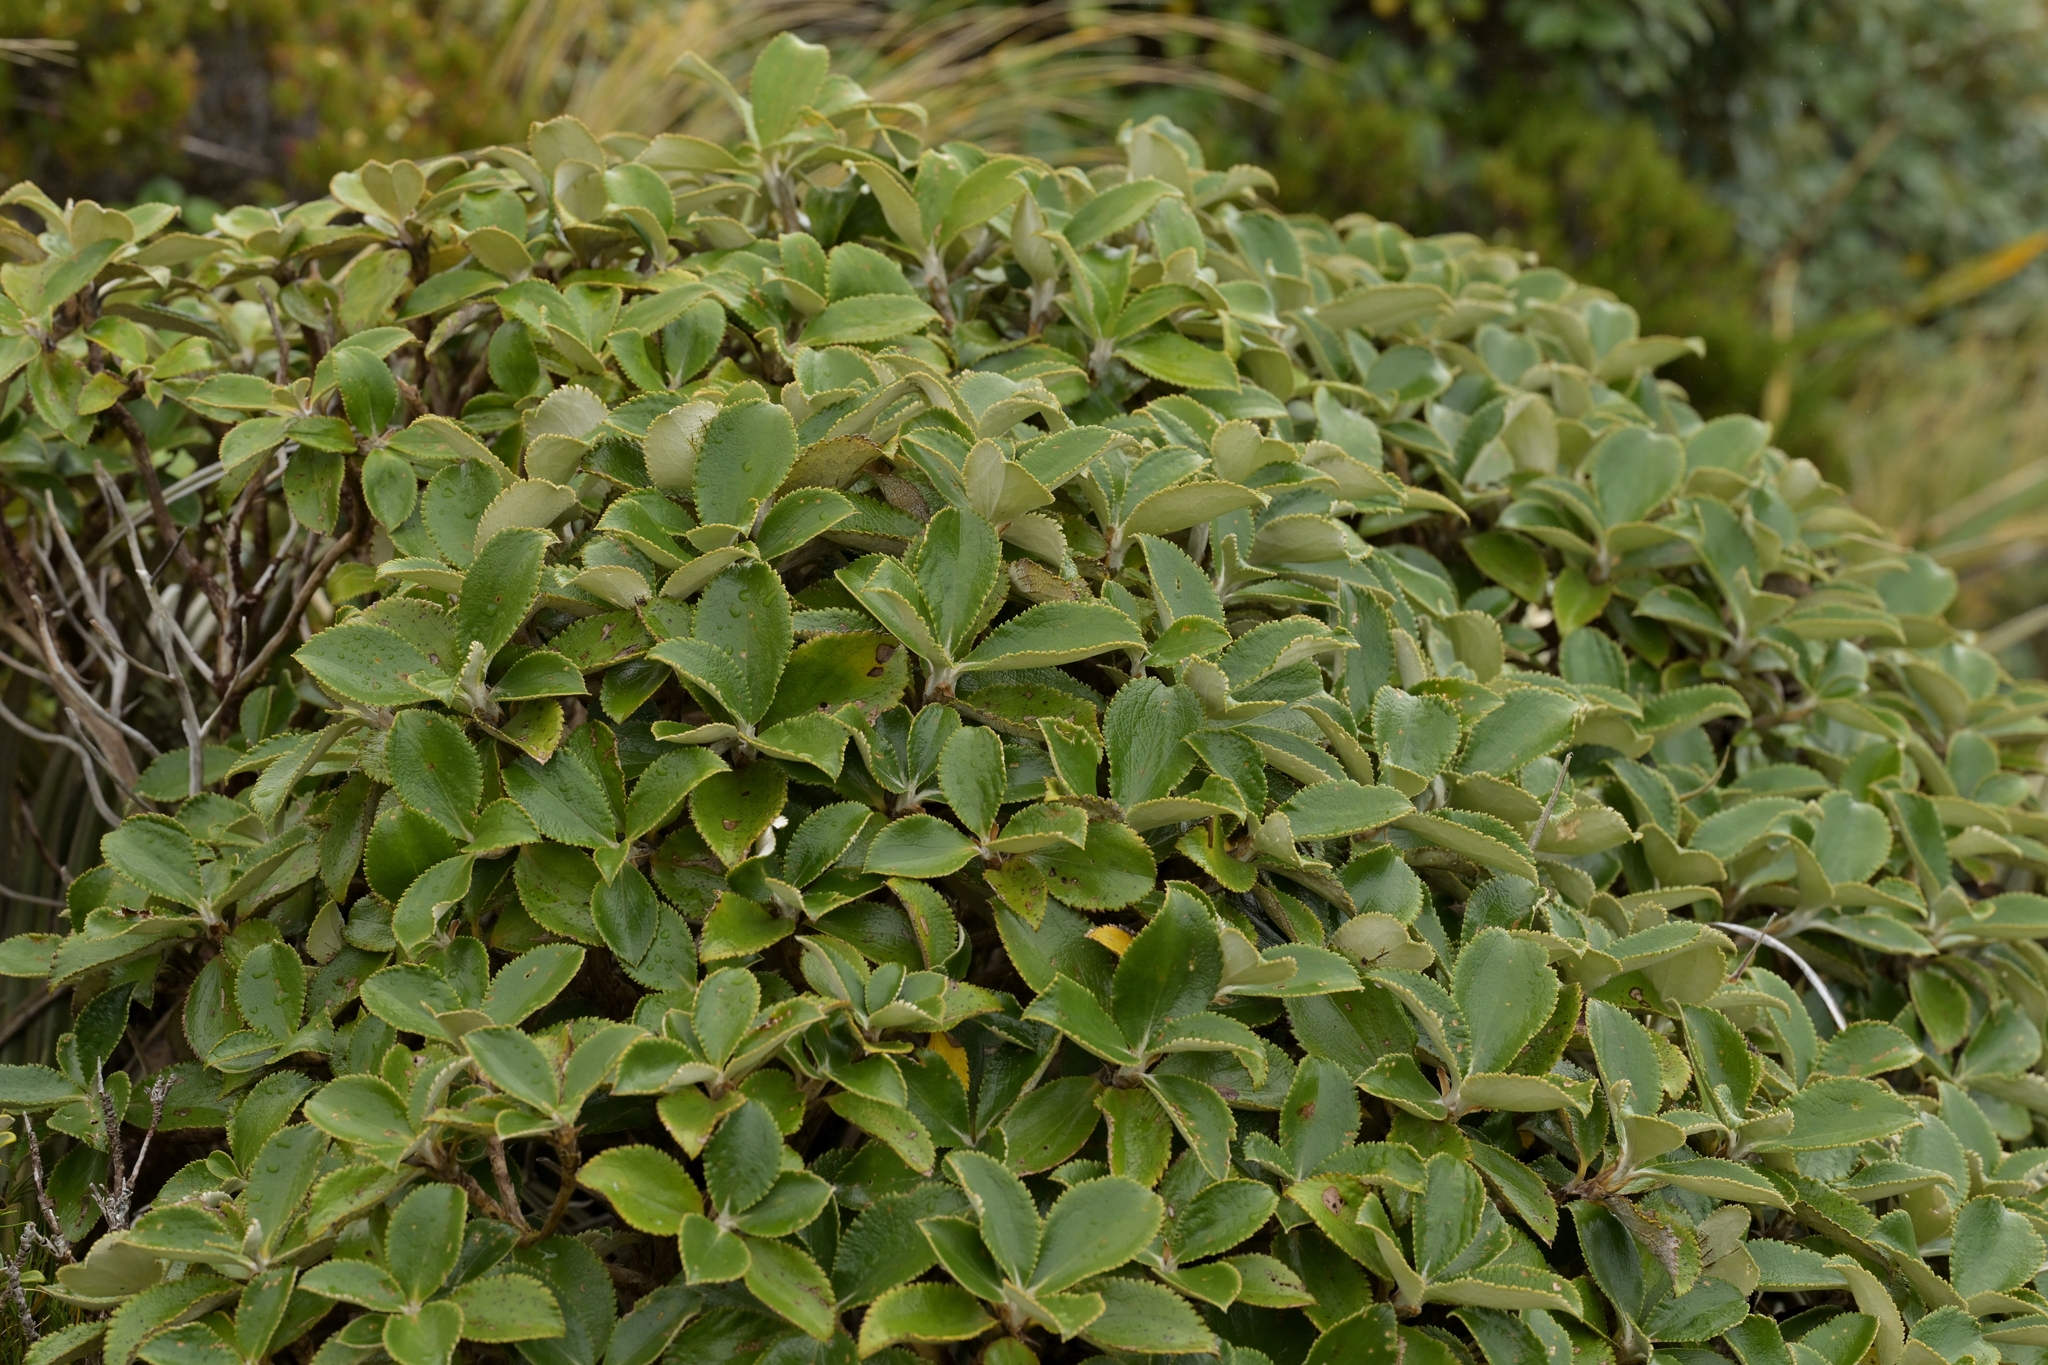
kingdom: Plantae
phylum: Tracheophyta
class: Magnoliopsida
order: Asterales
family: Asteraceae
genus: Macrolearia
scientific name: Macrolearia colensoi
